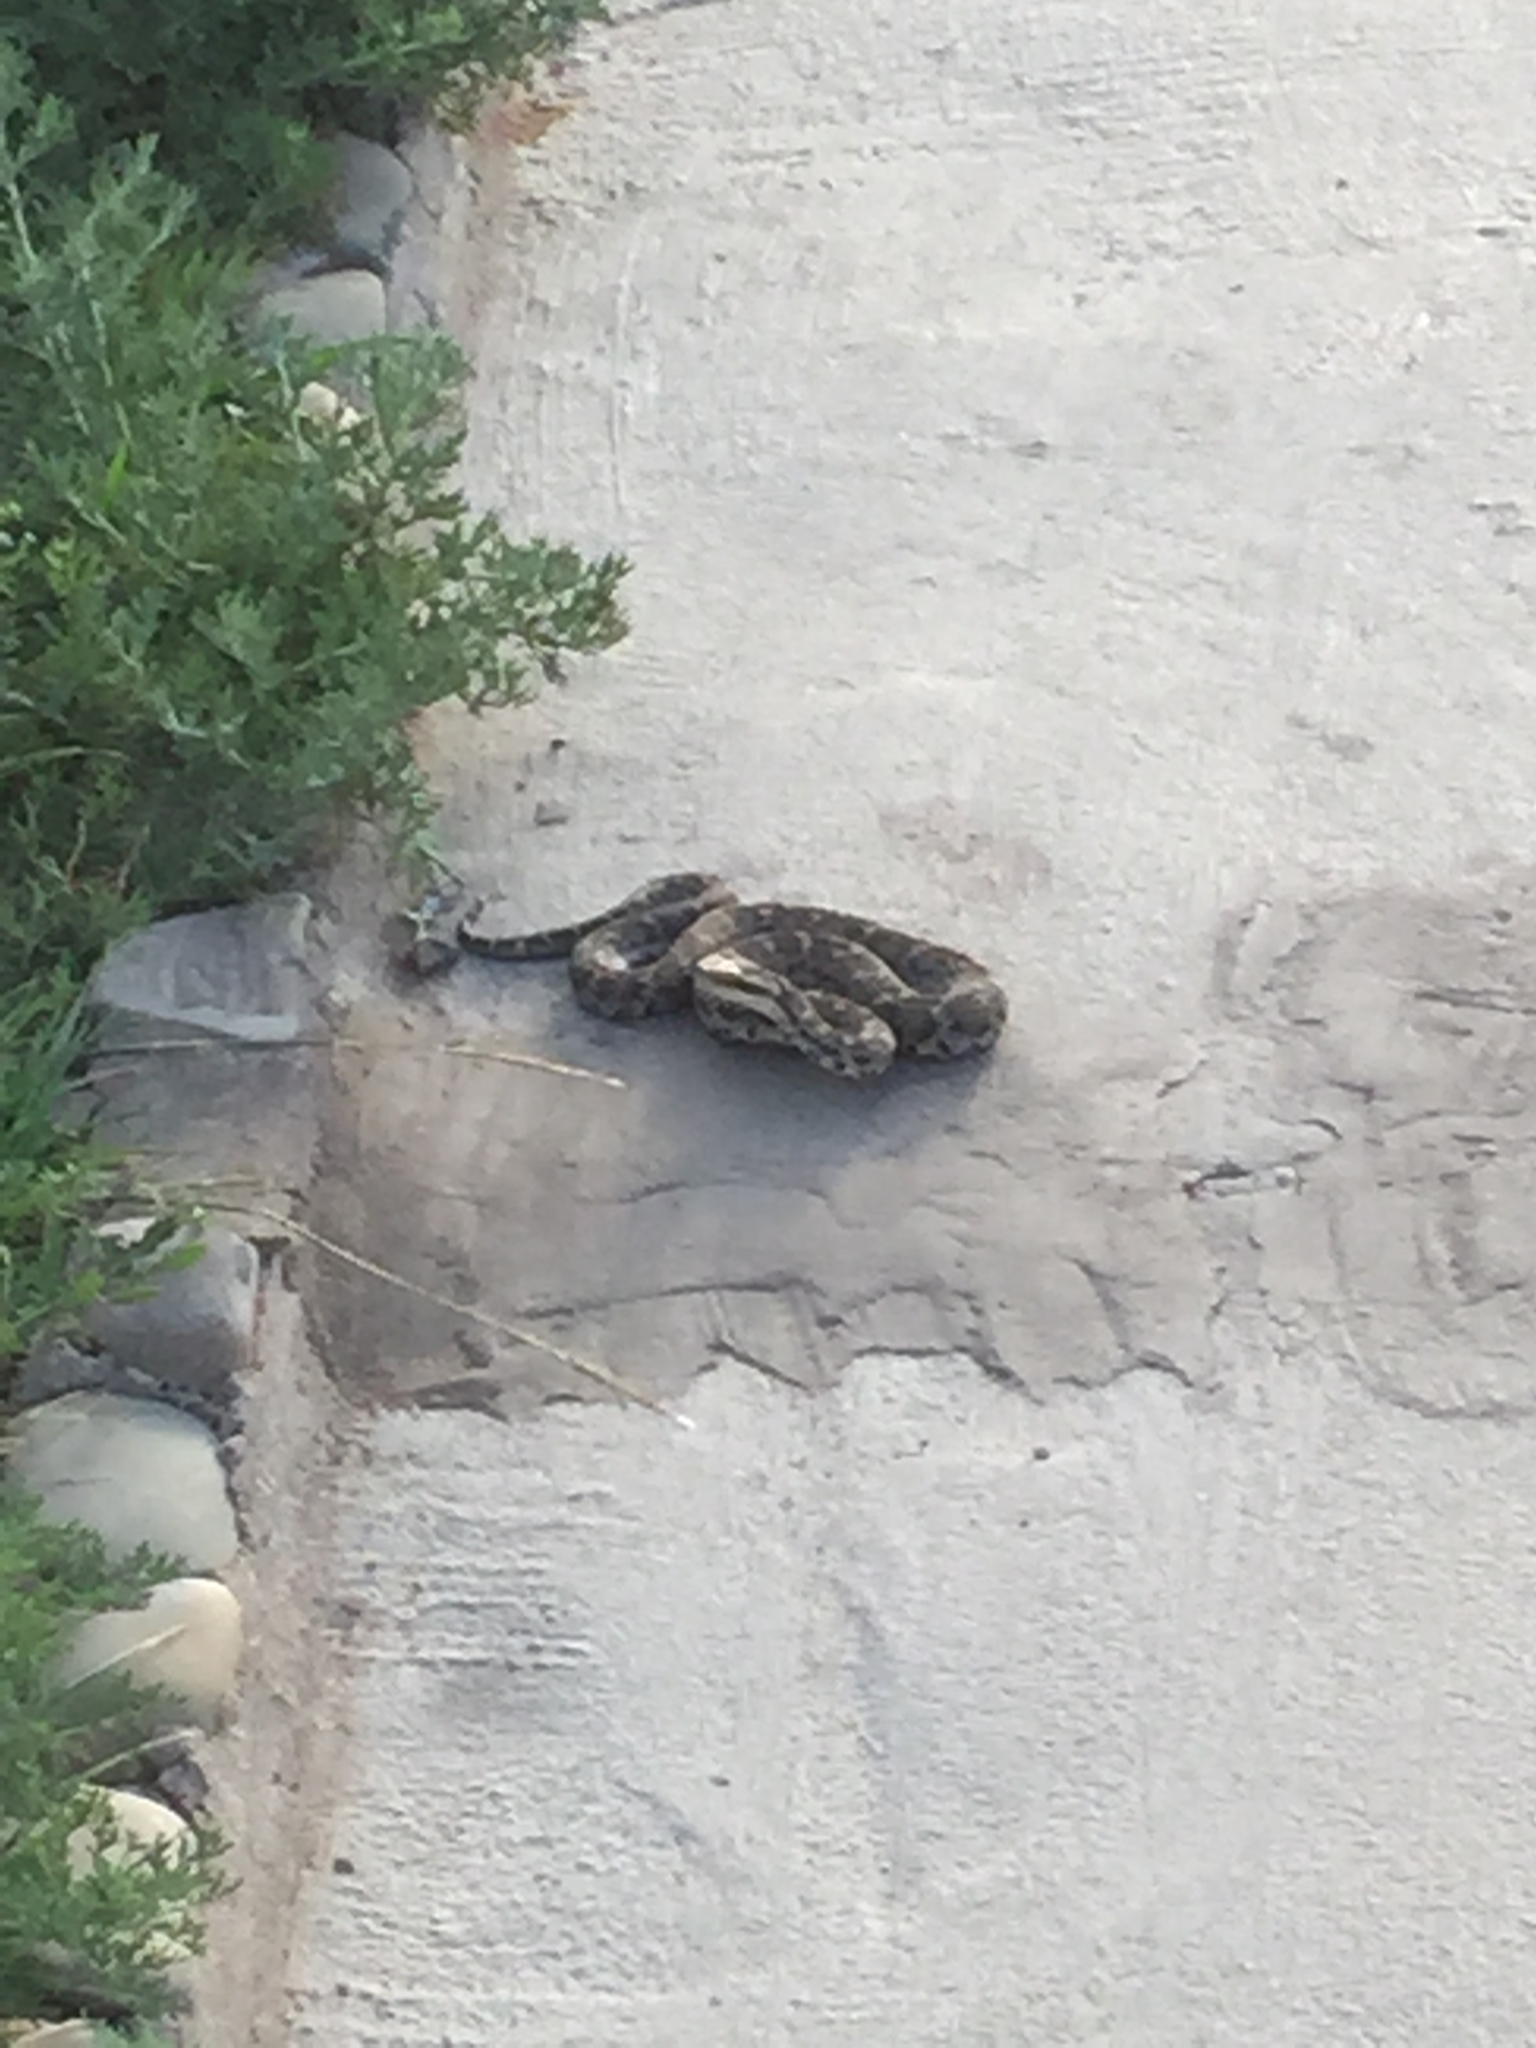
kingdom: Animalia
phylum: Chordata
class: Squamata
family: Viperidae
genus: Gloydius
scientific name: Gloydius halys
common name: Halys pit viper
